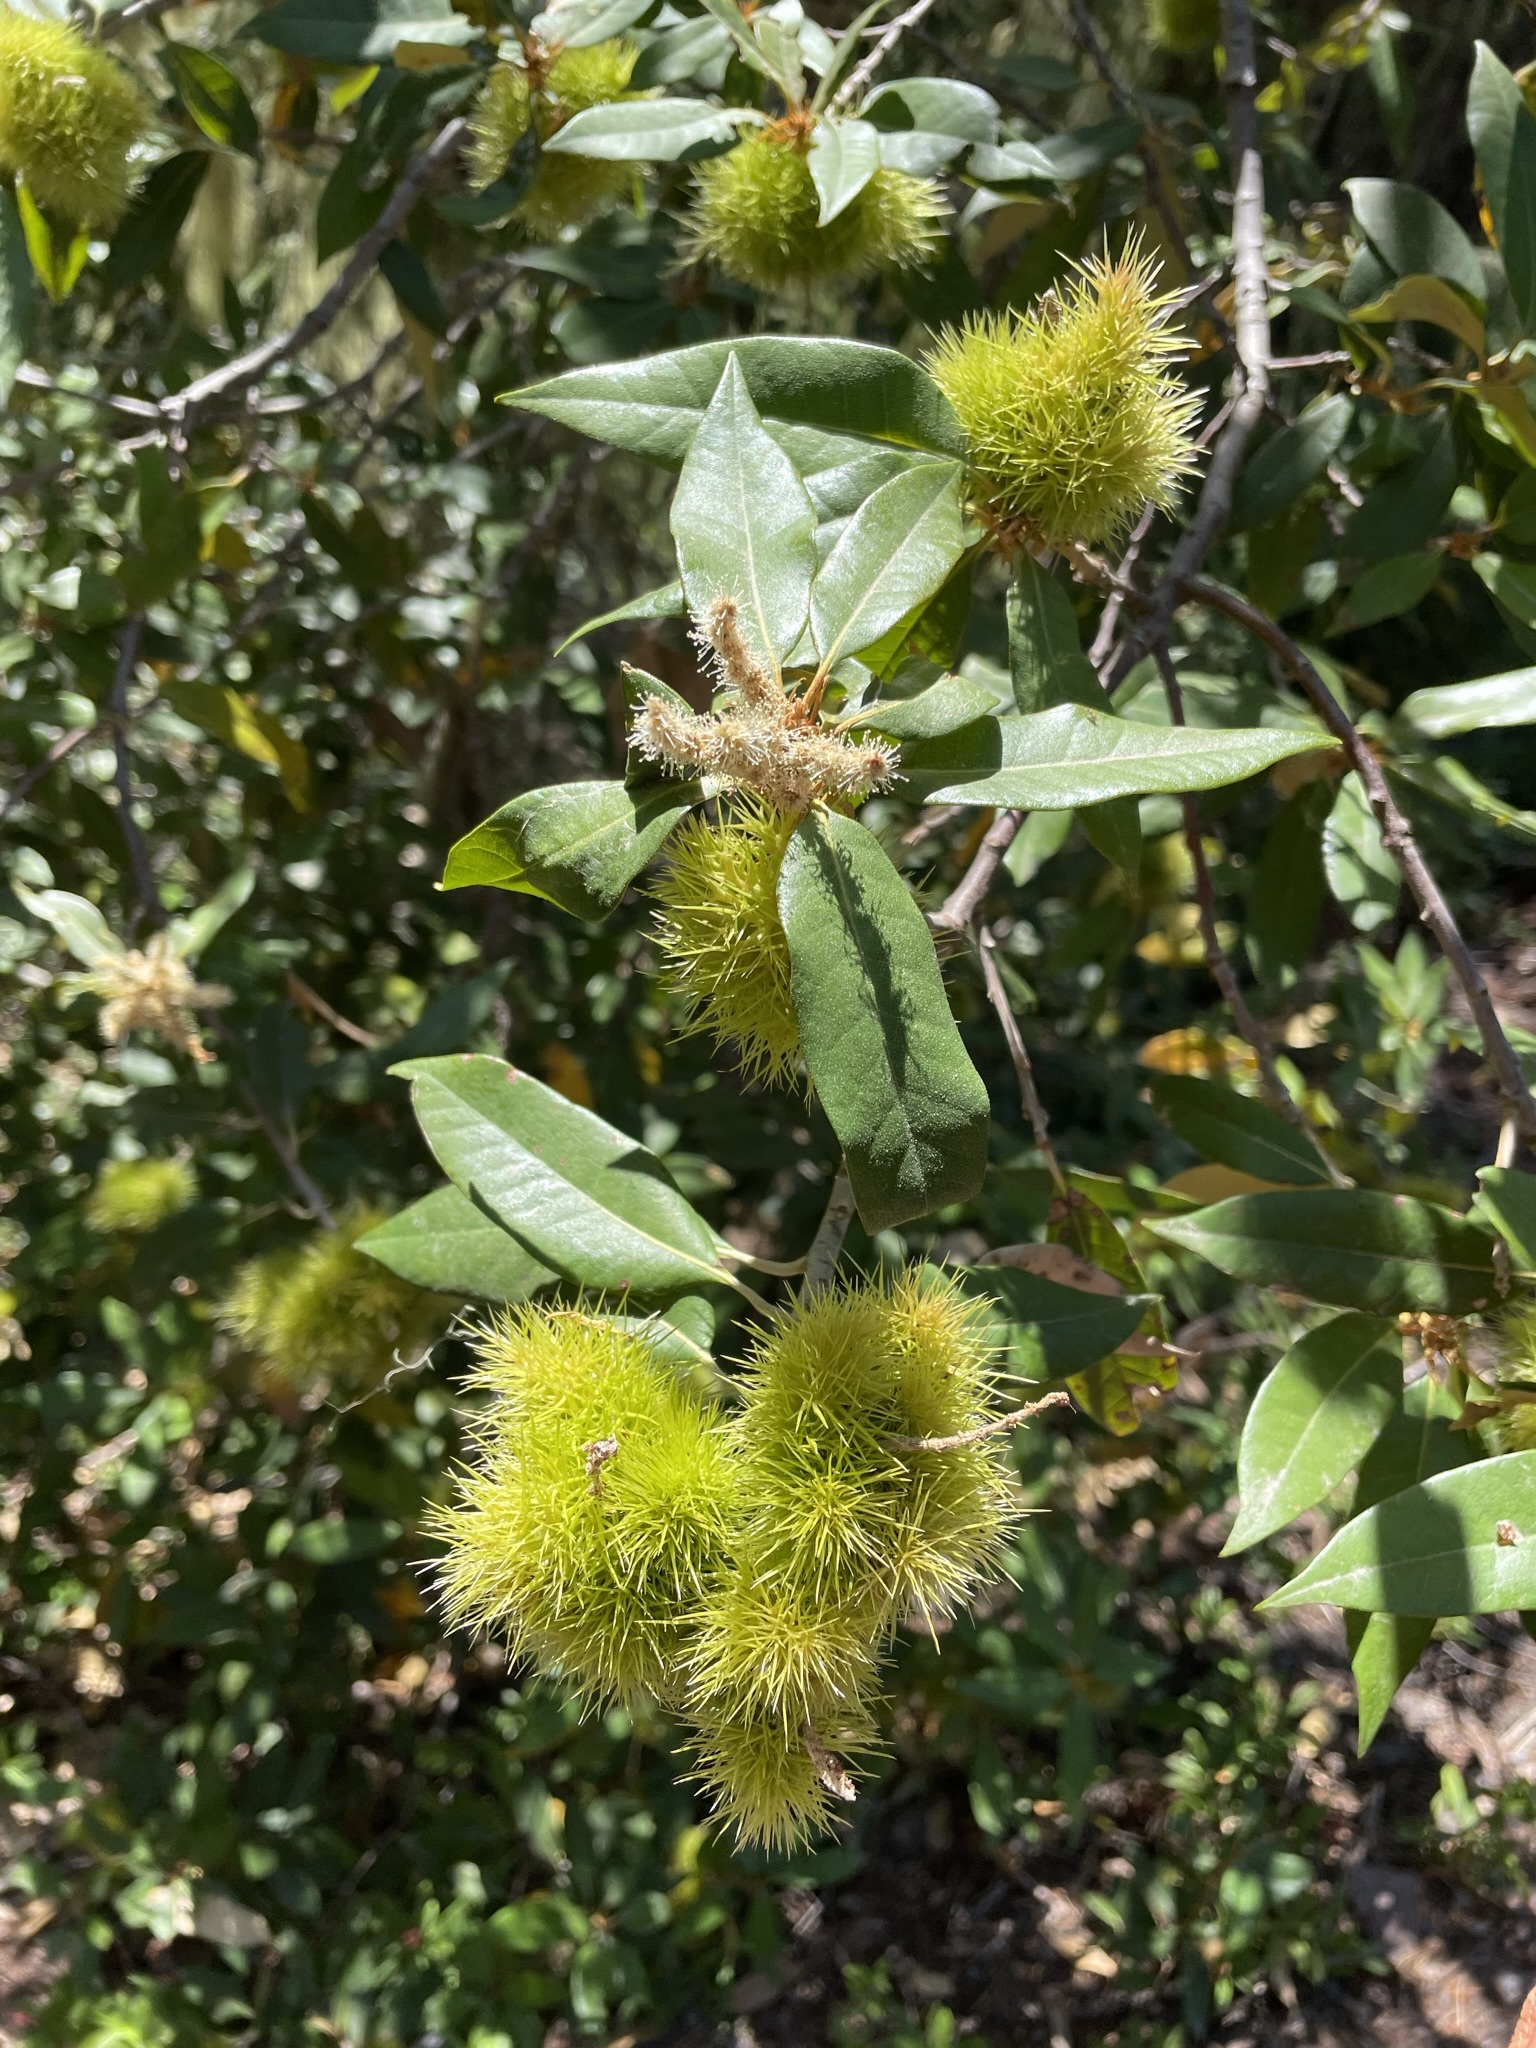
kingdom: Plantae
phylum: Tracheophyta
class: Magnoliopsida
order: Fagales
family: Fagaceae
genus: Chrysolepis
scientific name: Chrysolepis chrysophylla
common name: Giant chinquapin
